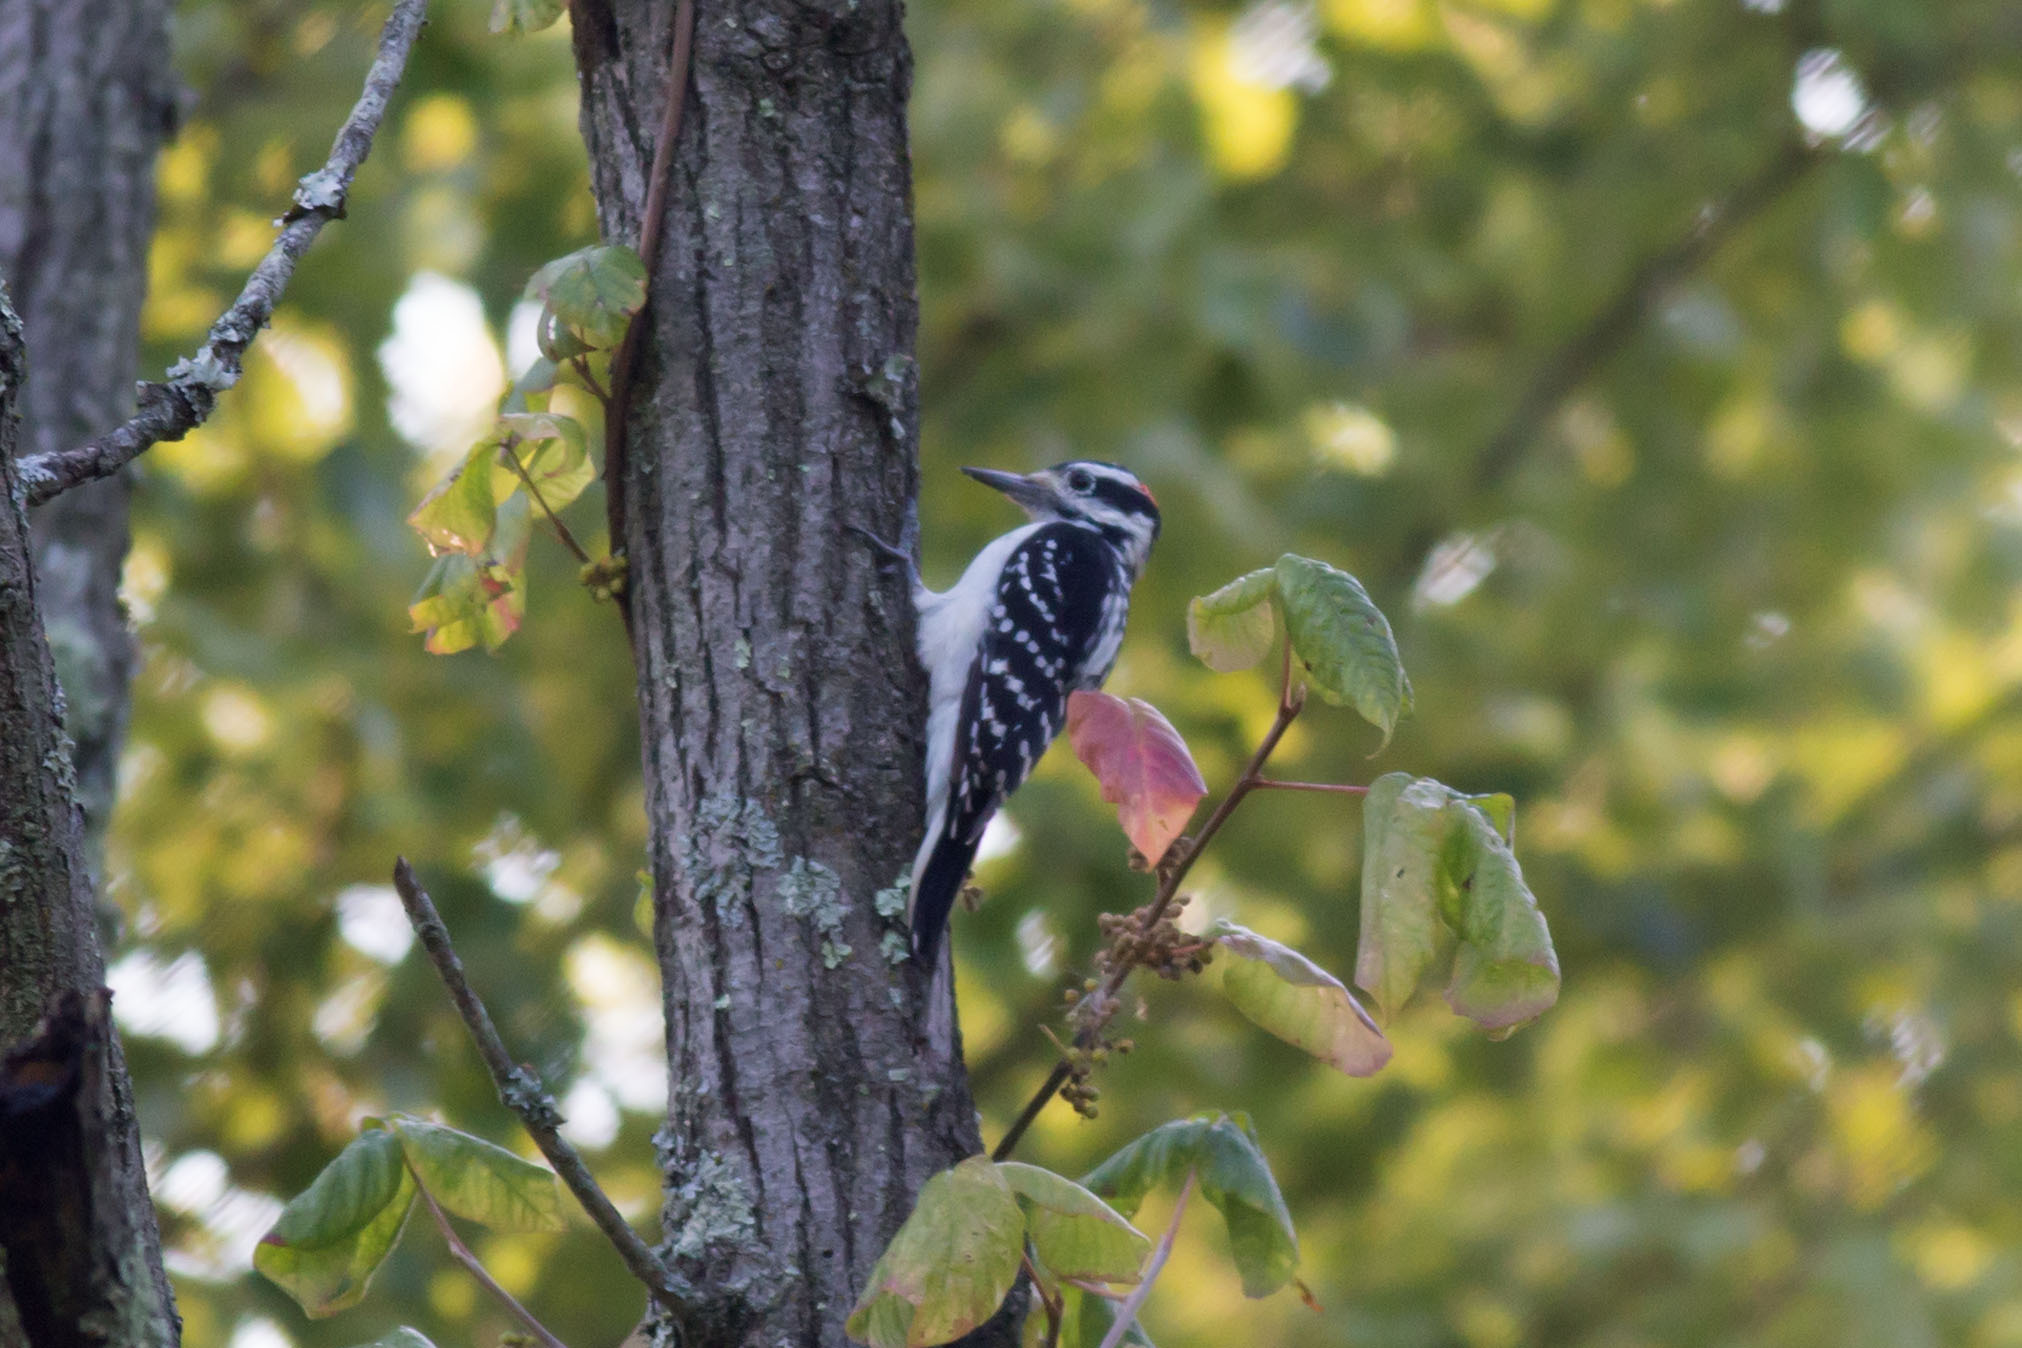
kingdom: Animalia
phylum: Chordata
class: Aves
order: Piciformes
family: Picidae
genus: Leuconotopicus
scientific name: Leuconotopicus villosus
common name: Hairy woodpecker
